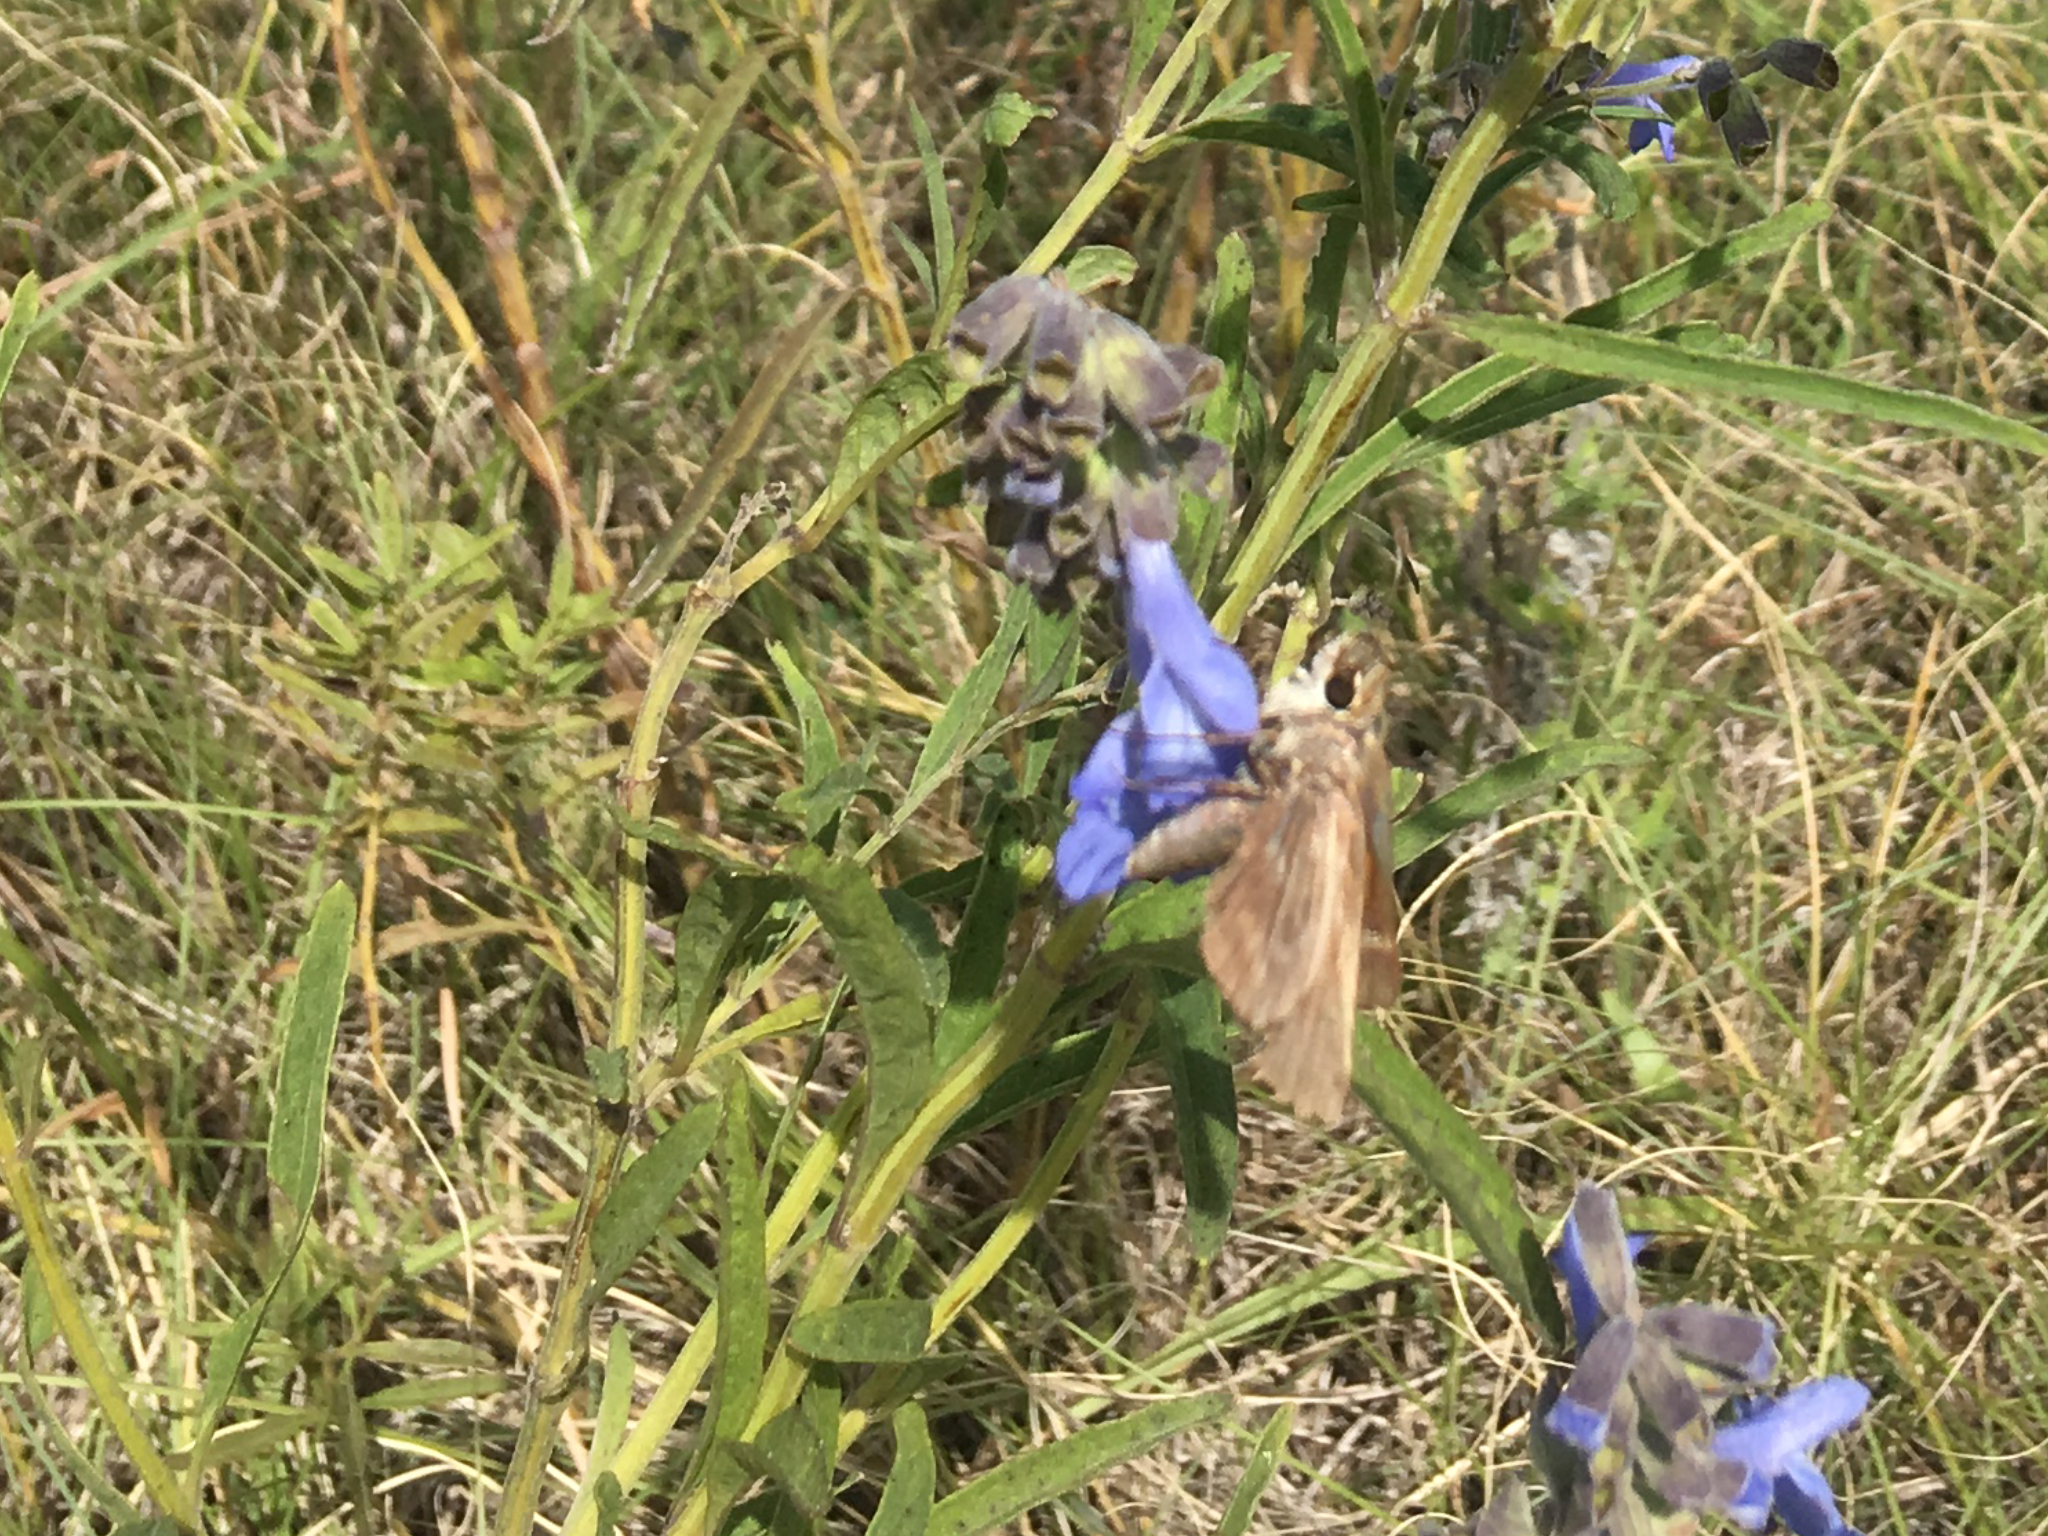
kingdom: Animalia
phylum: Arthropoda
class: Insecta
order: Lepidoptera
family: Hesperiidae
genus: Atalopedes
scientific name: Atalopedes
